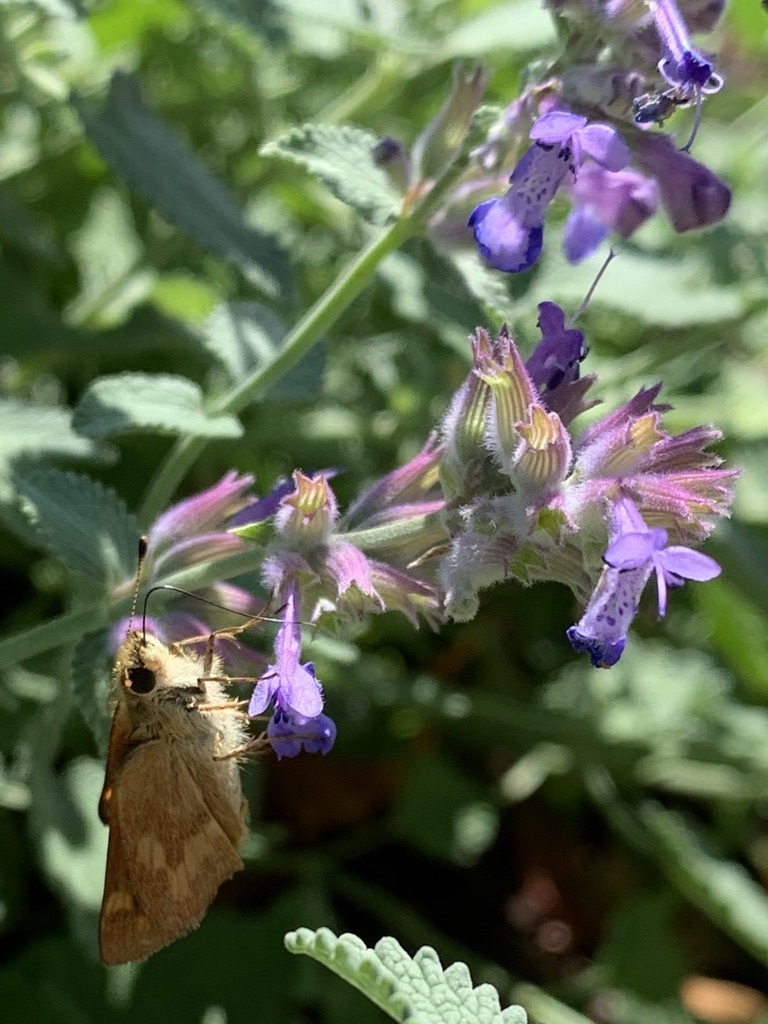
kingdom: Animalia
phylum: Arthropoda
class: Insecta
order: Lepidoptera
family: Hesperiidae
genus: Ochlodes
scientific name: Ochlodes sylvanoides
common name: Woodland skipper
